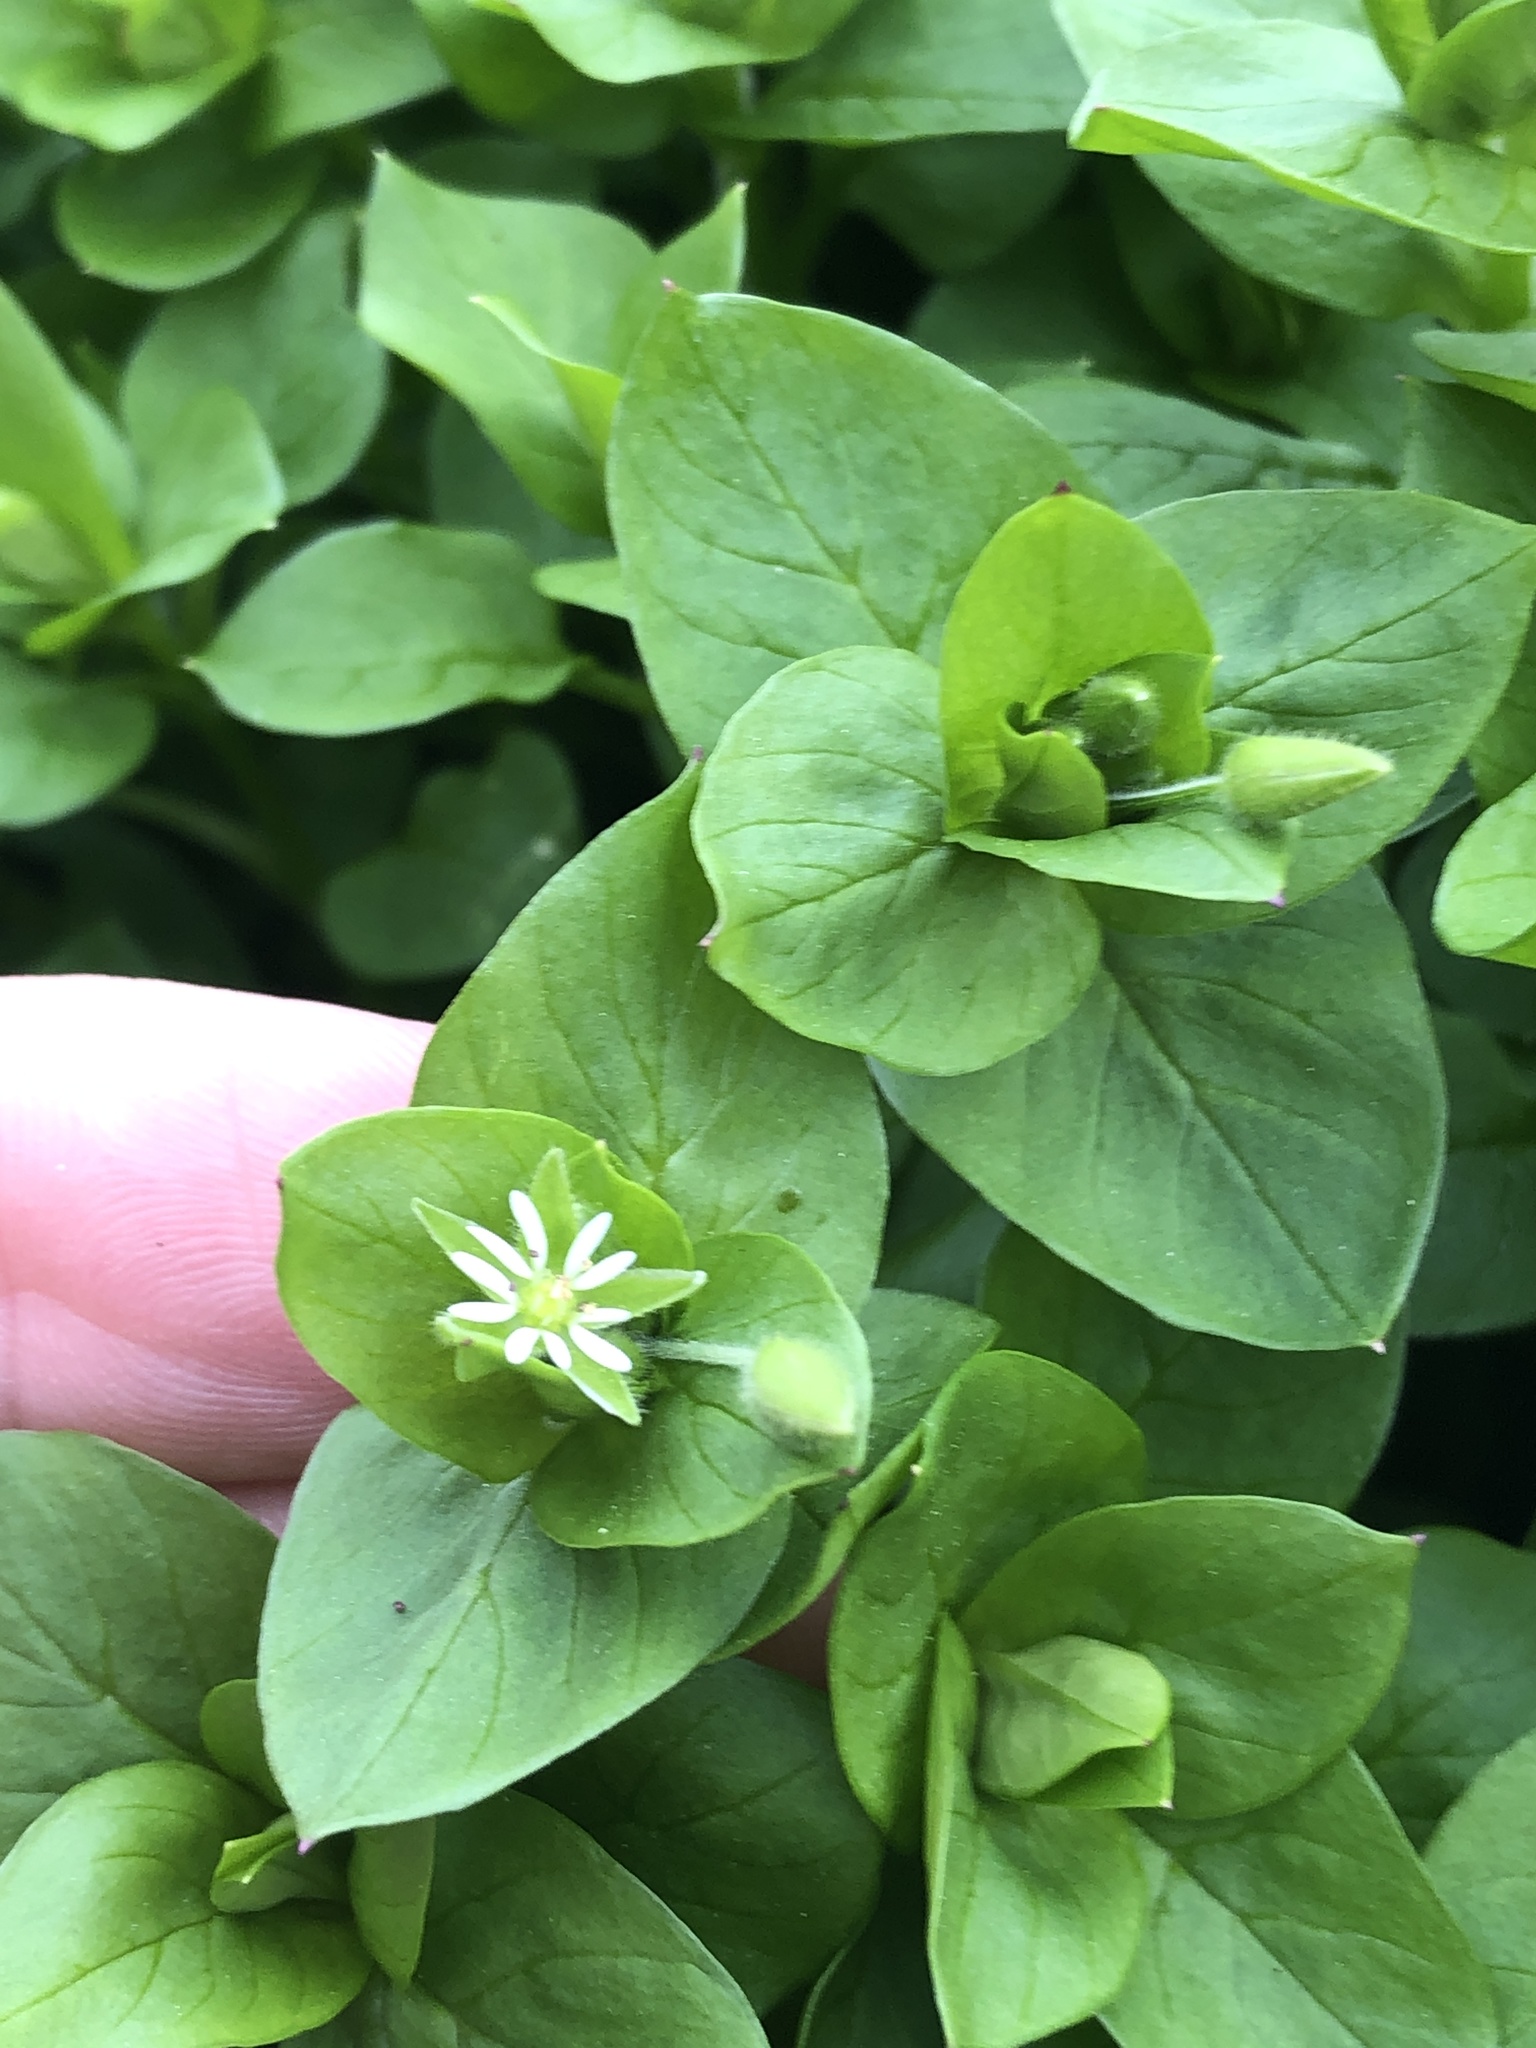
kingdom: Plantae
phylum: Tracheophyta
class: Magnoliopsida
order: Caryophyllales
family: Caryophyllaceae
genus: Stellaria
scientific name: Stellaria media
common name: Common chickweed
